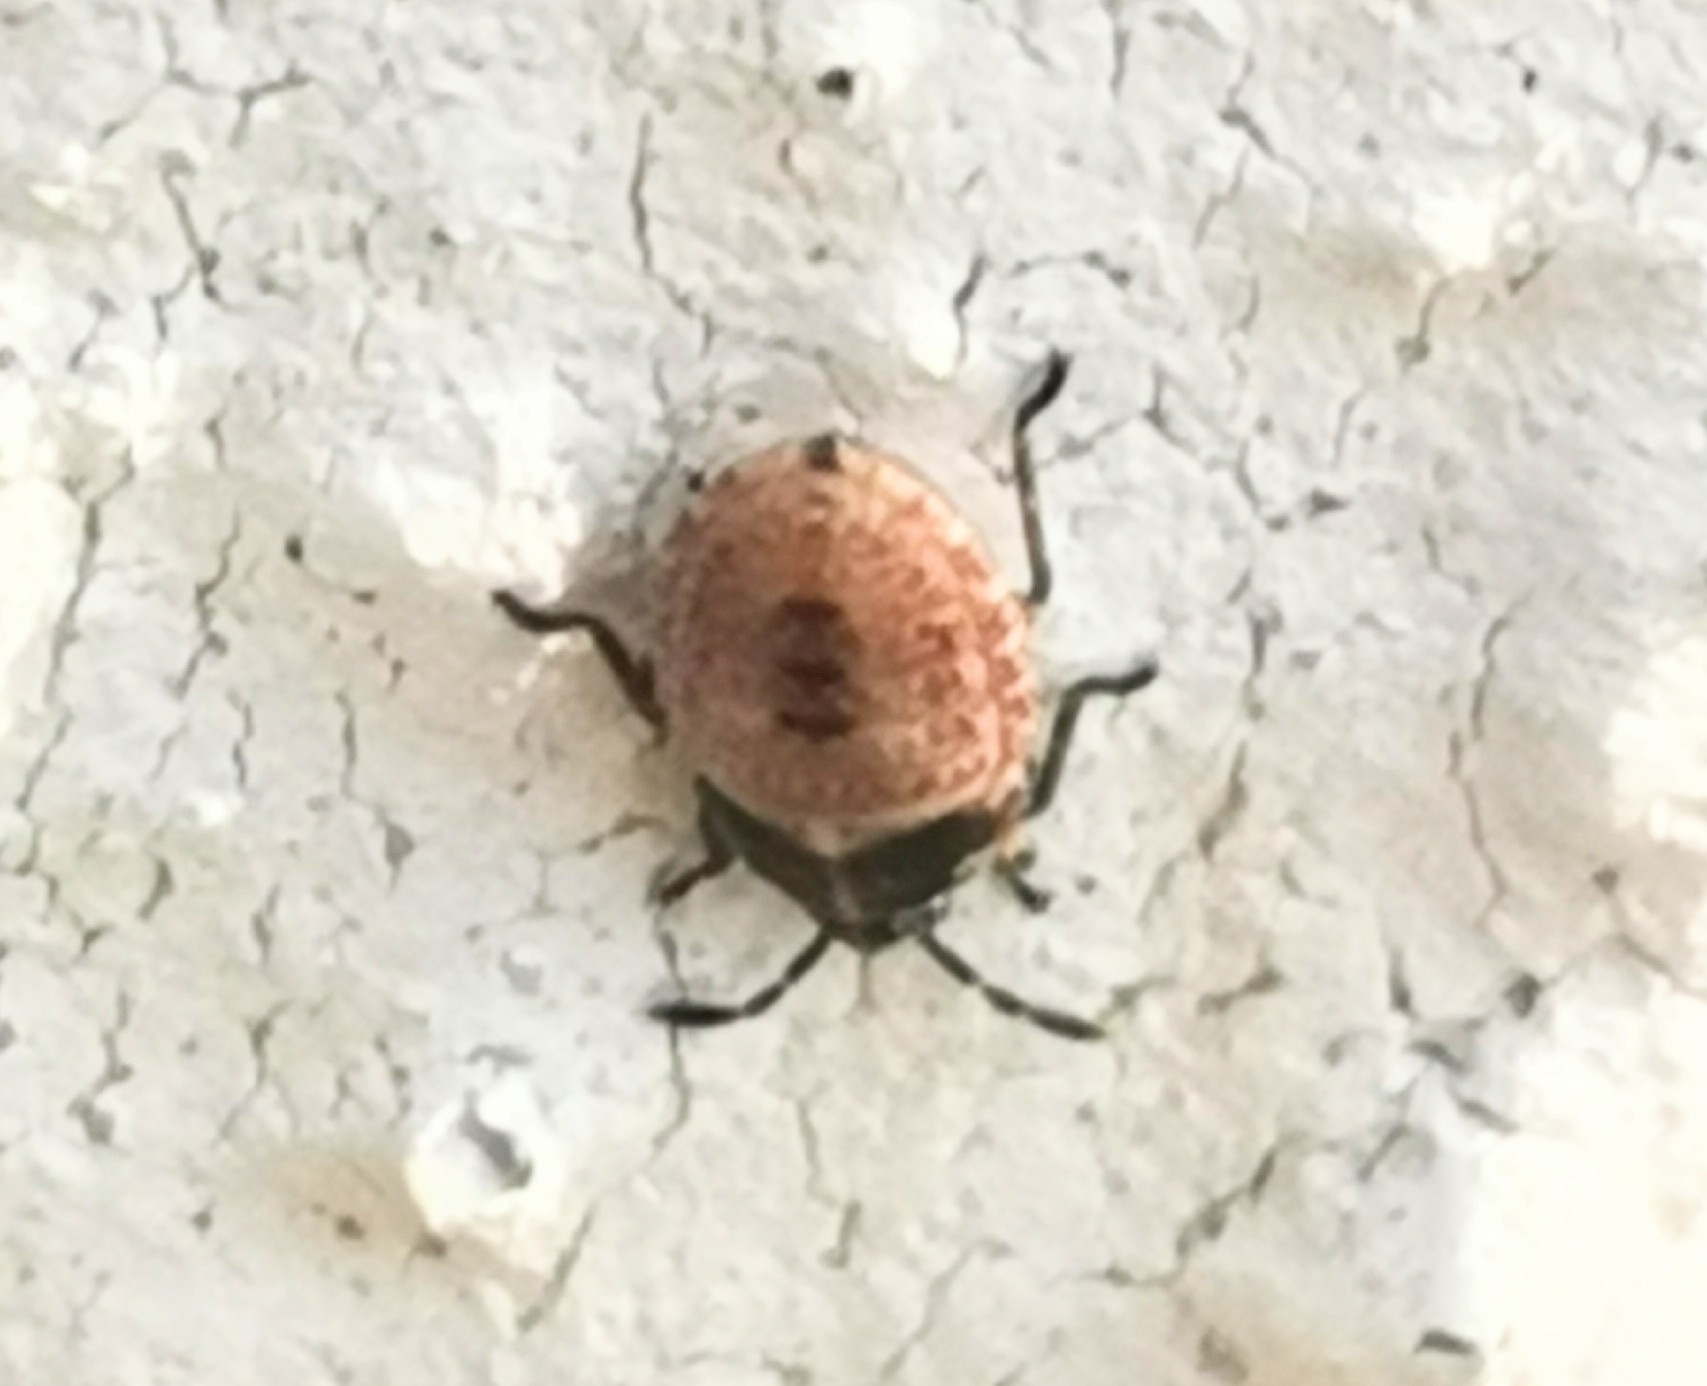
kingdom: Animalia
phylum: Arthropoda
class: Insecta
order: Hemiptera
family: Lygaeidae
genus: Kleidocerys
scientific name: Kleidocerys resedae
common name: Birch catkin bug
